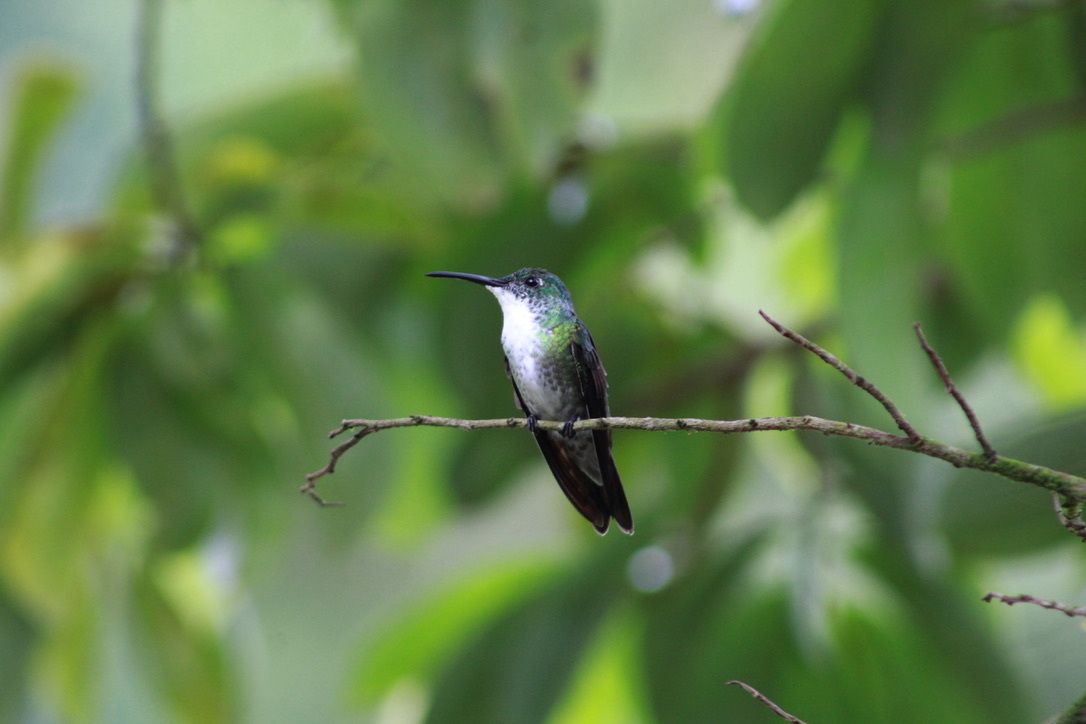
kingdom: Animalia
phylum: Chordata
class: Aves
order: Apodiformes
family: Trochilidae
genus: Chrysuronia
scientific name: Chrysuronia brevirostris
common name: White-chested emerald
